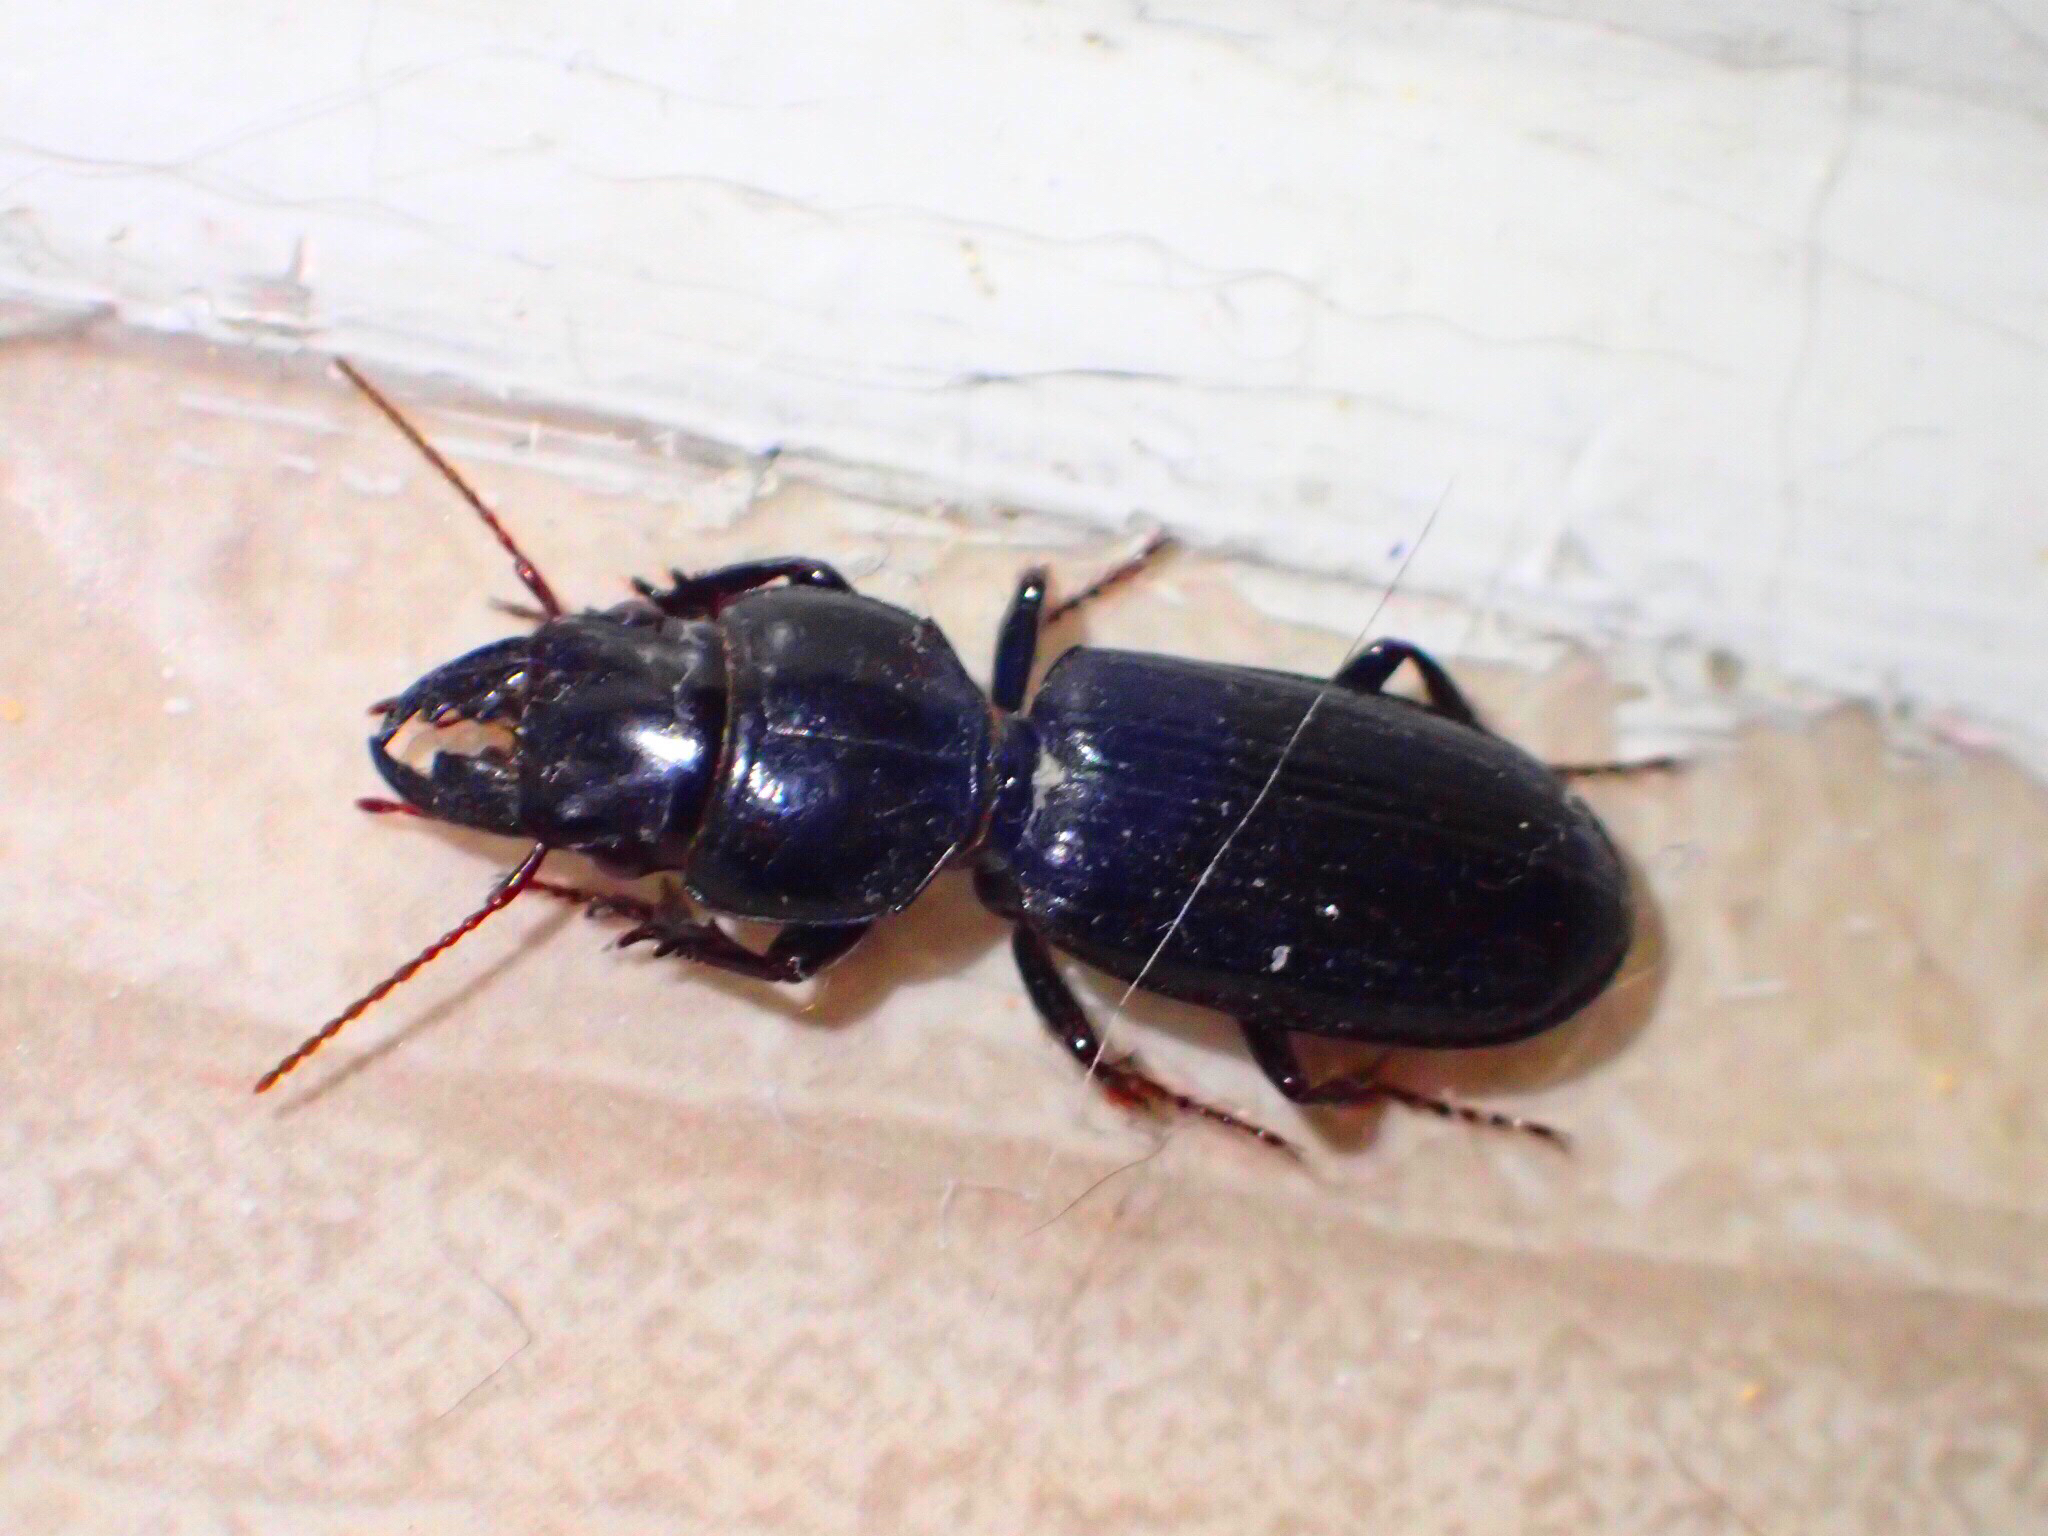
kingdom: Animalia
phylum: Arthropoda
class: Insecta
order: Coleoptera
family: Carabidae
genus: Scarites
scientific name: Scarites subterraneus
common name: Big-headed ground beetle
